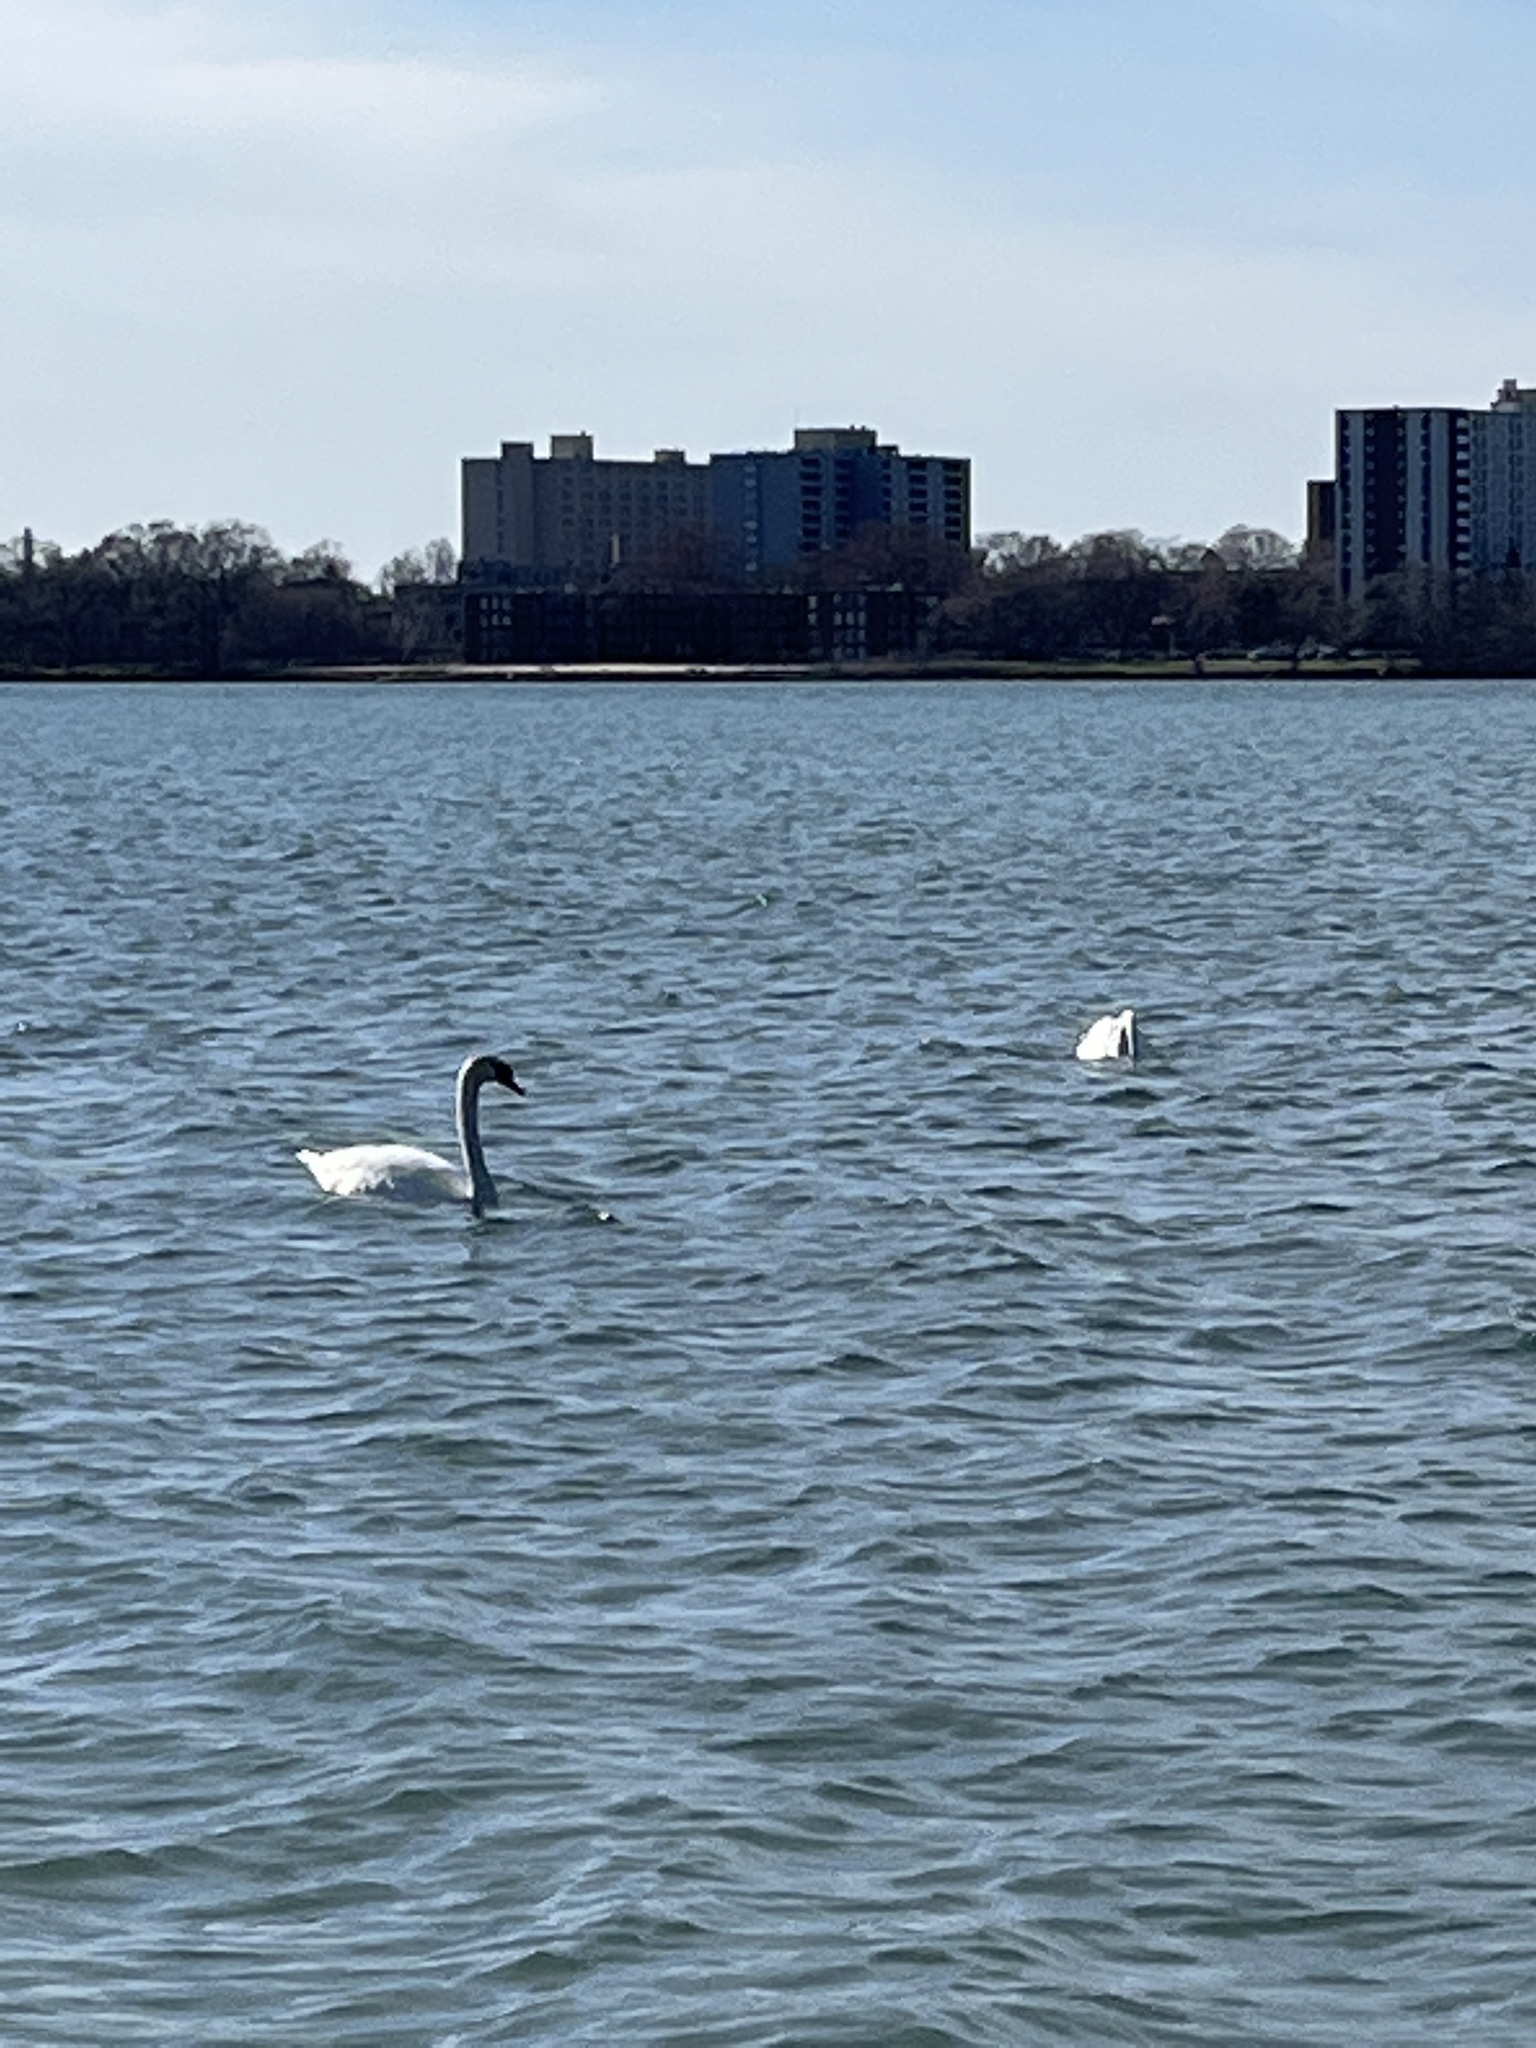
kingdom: Animalia
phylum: Chordata
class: Aves
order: Anseriformes
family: Anatidae
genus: Cygnus
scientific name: Cygnus olor
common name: Mute swan
